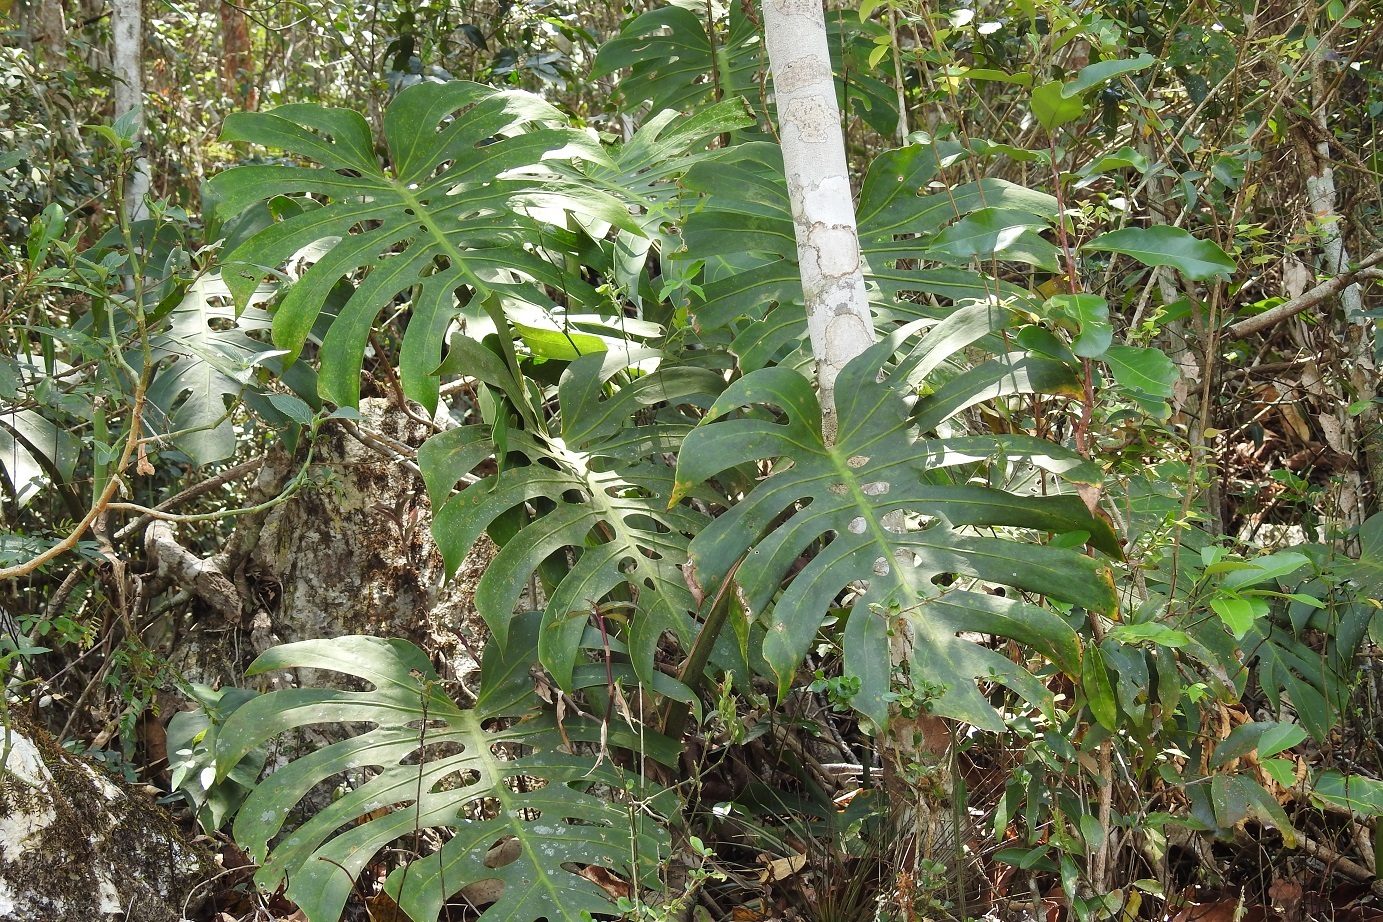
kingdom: Plantae
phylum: Tracheophyta
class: Liliopsida
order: Alismatales
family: Araceae
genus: Monstera
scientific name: Monstera deliciosa
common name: Cut-leaf-philodendron
